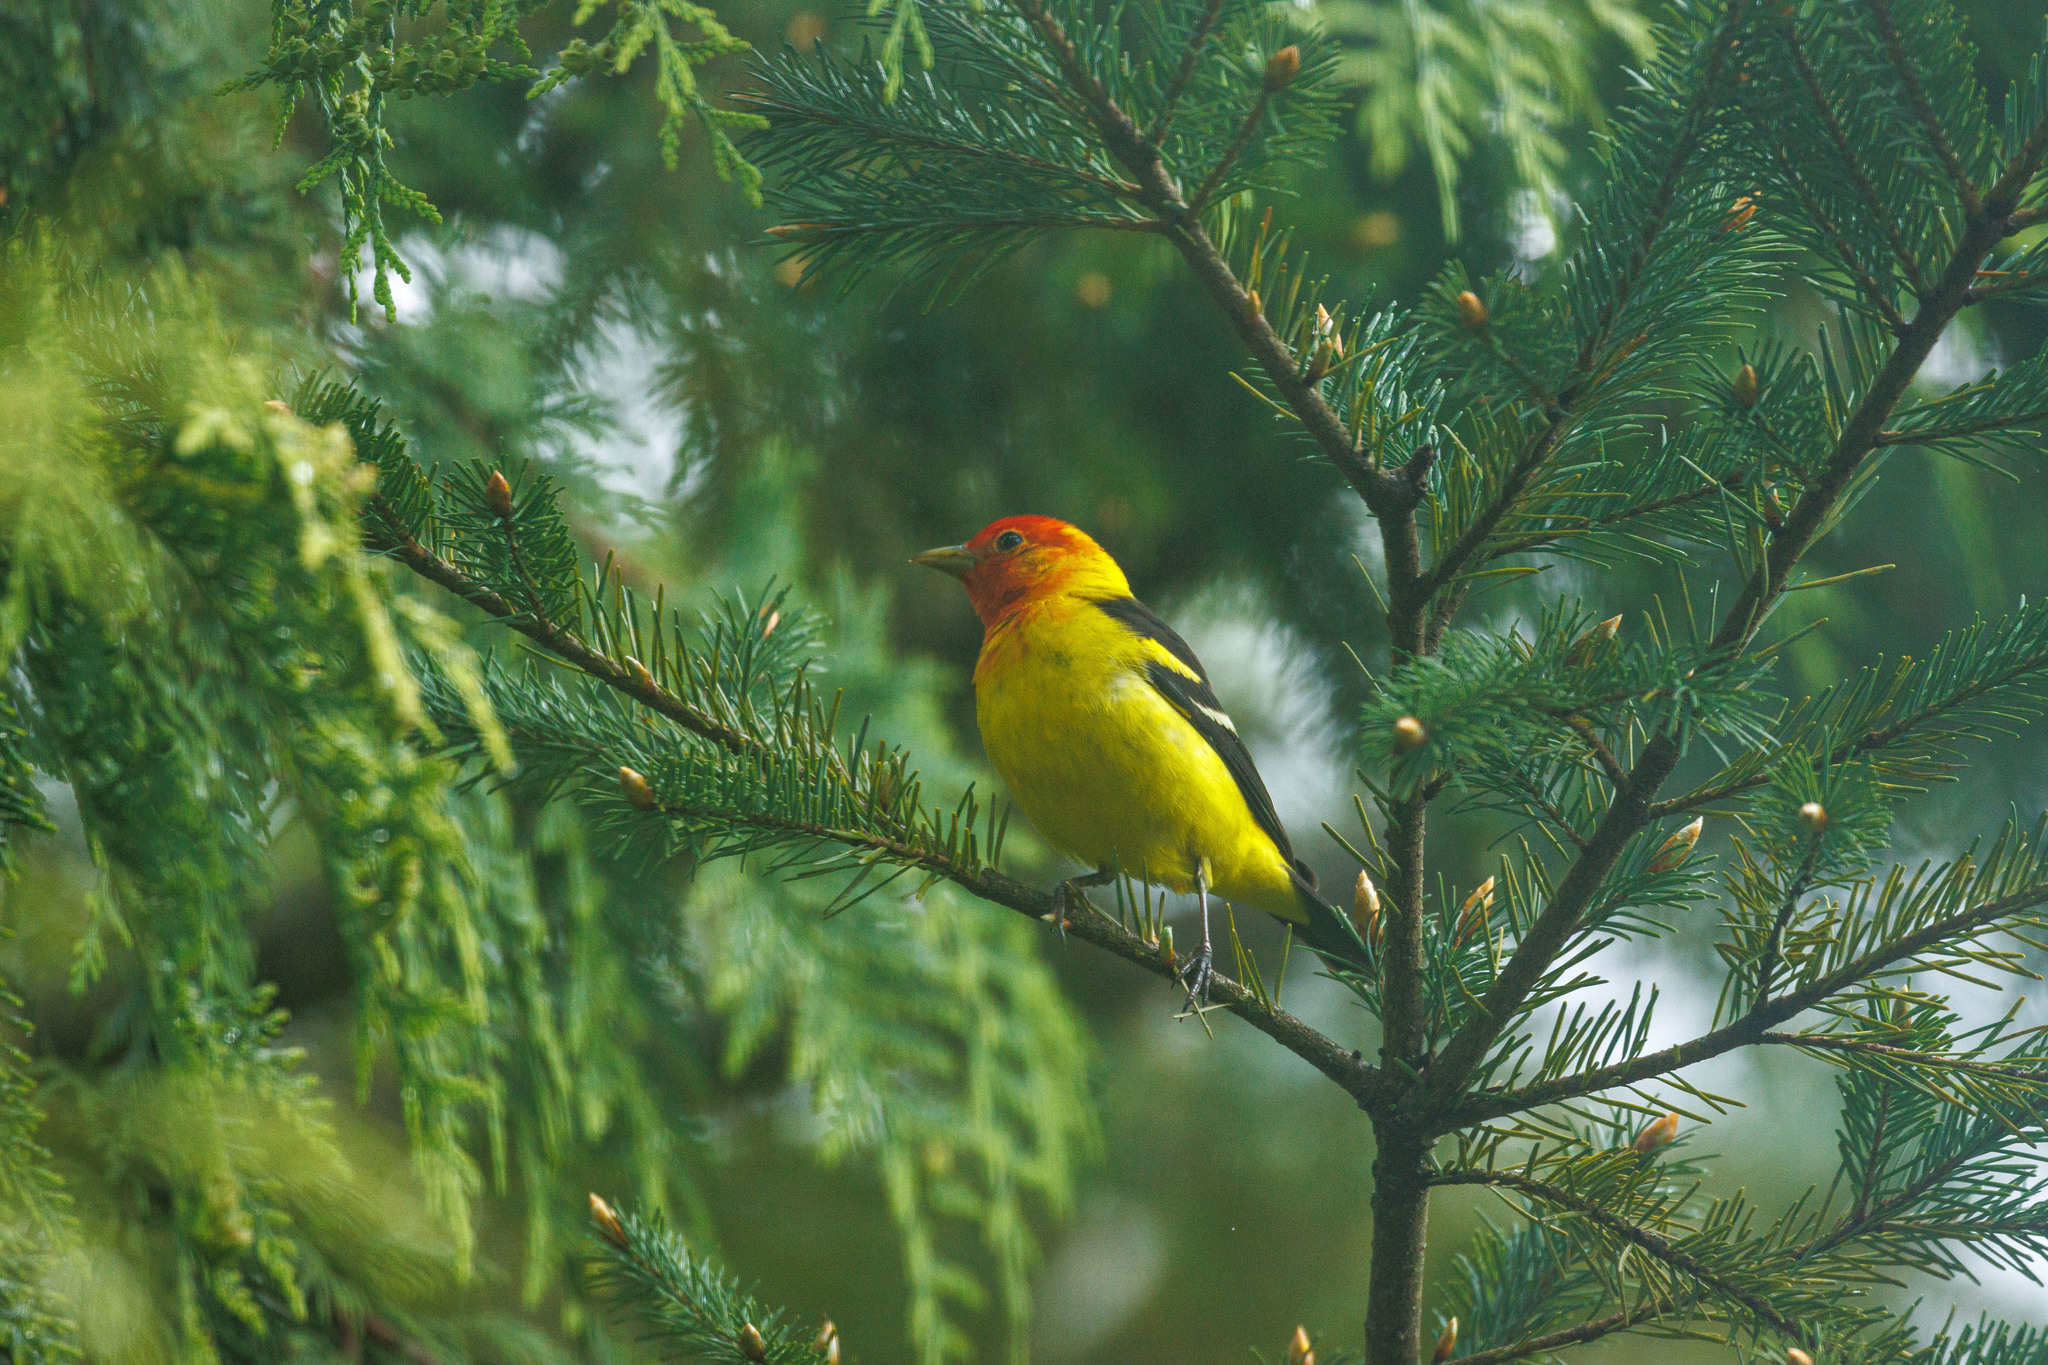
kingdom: Animalia
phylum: Chordata
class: Aves
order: Passeriformes
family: Cardinalidae
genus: Piranga
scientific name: Piranga ludoviciana
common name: Western tanager
